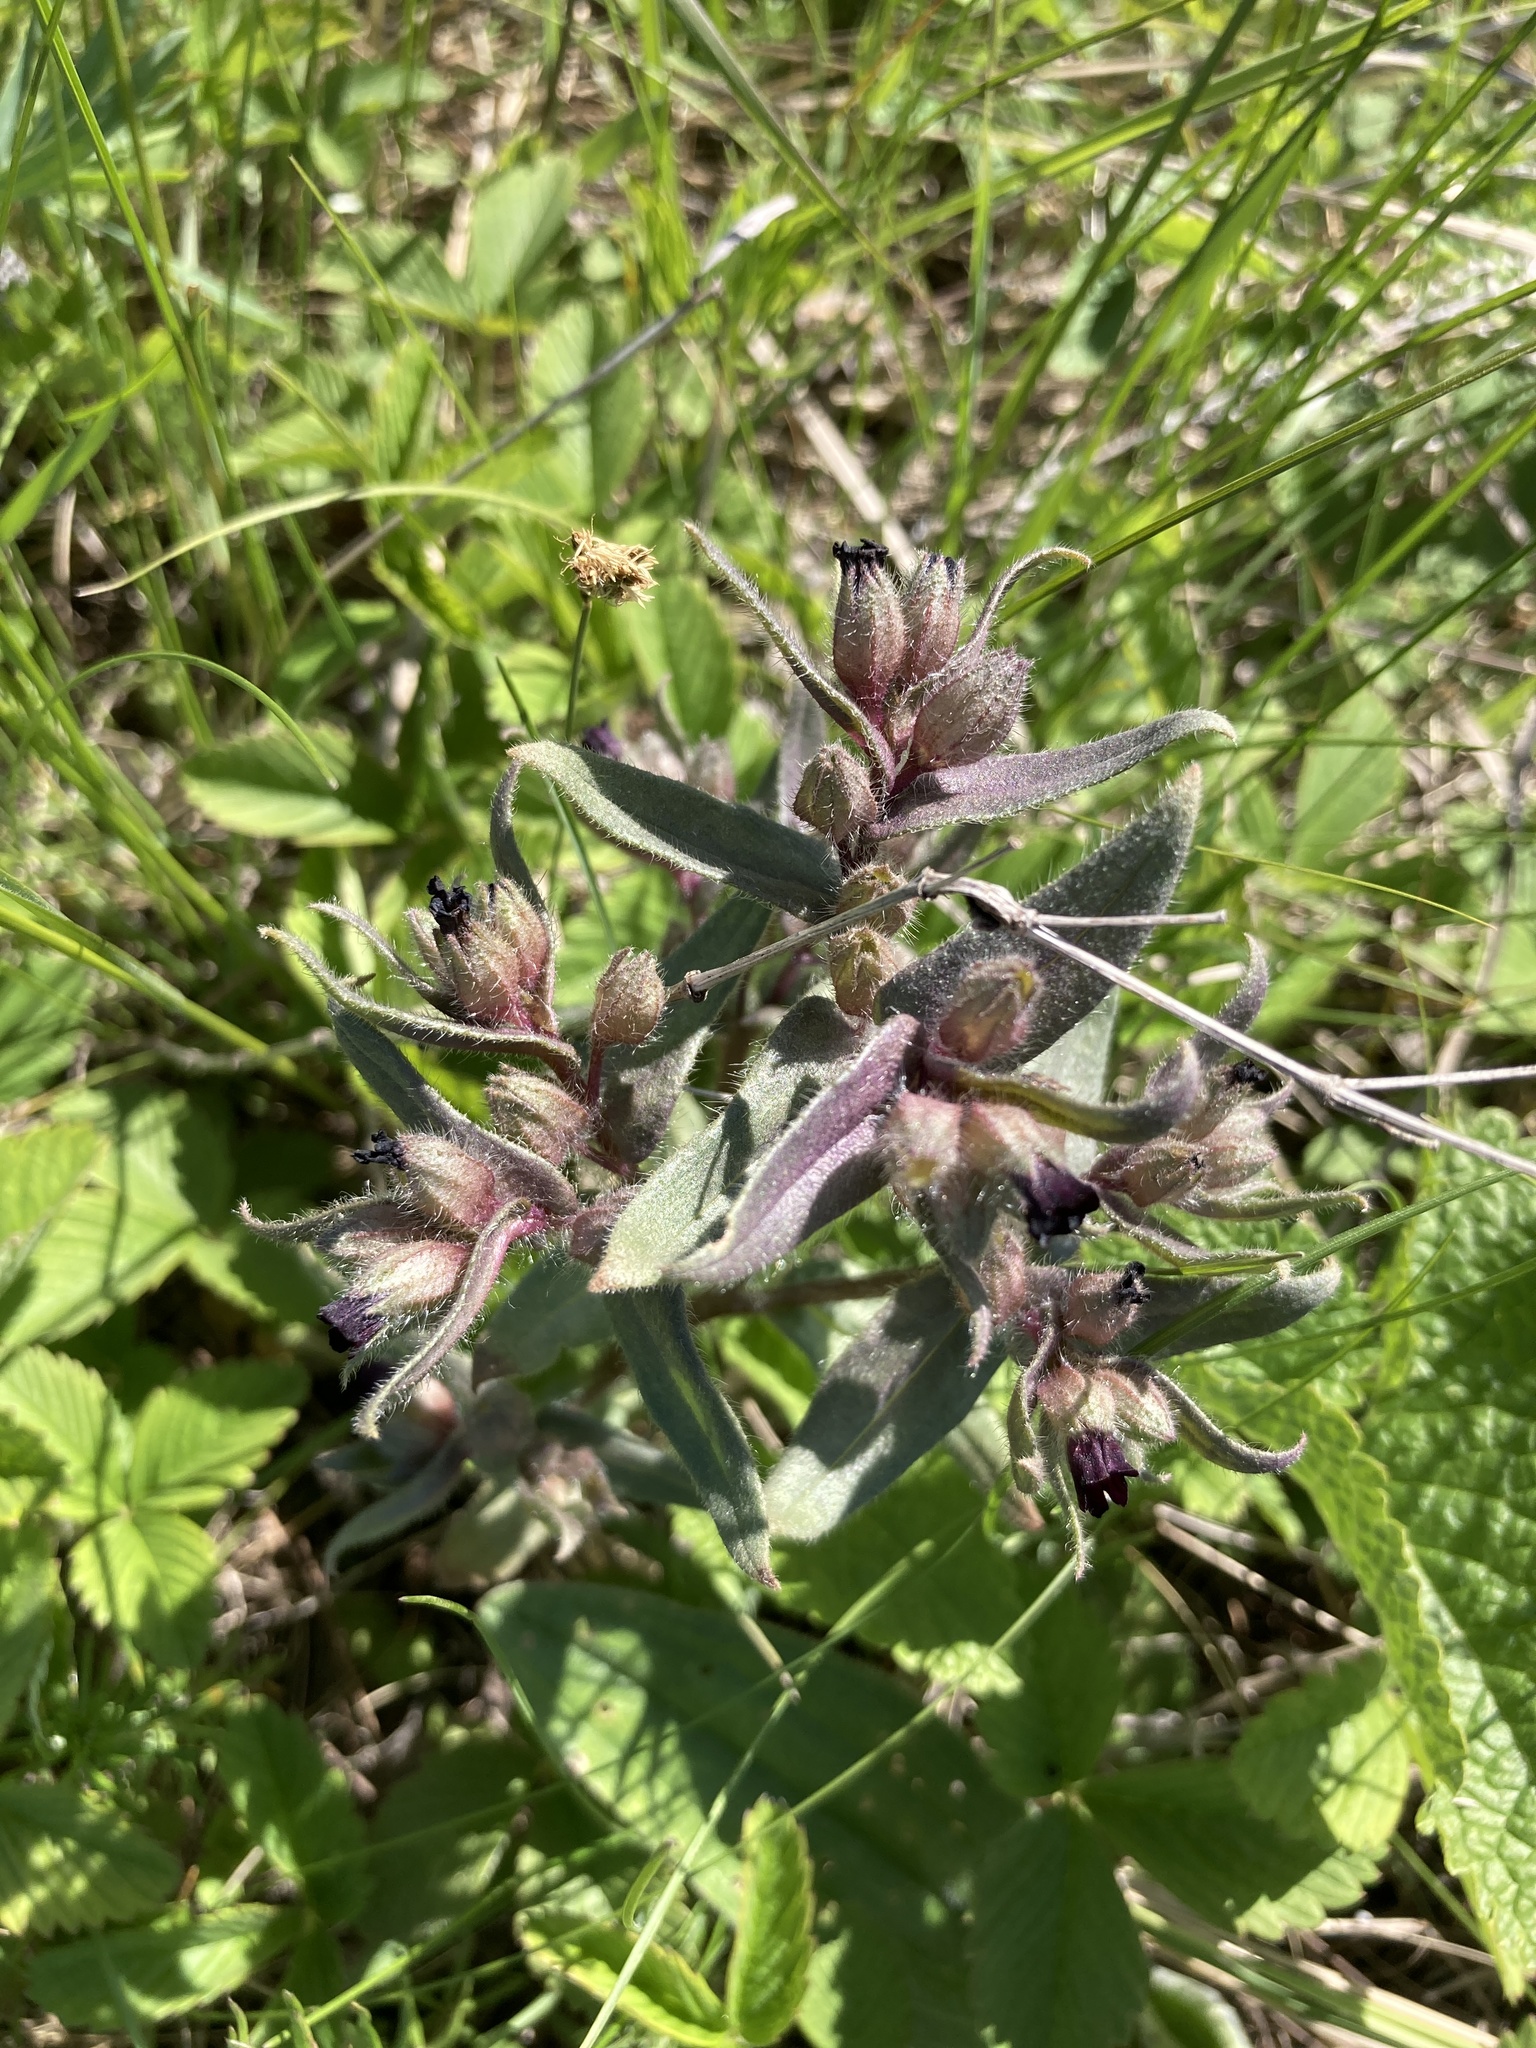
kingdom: Plantae
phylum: Tracheophyta
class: Magnoliopsida
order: Boraginales
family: Boraginaceae
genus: Nonea
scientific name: Nonea pulla
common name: Brown nonea
